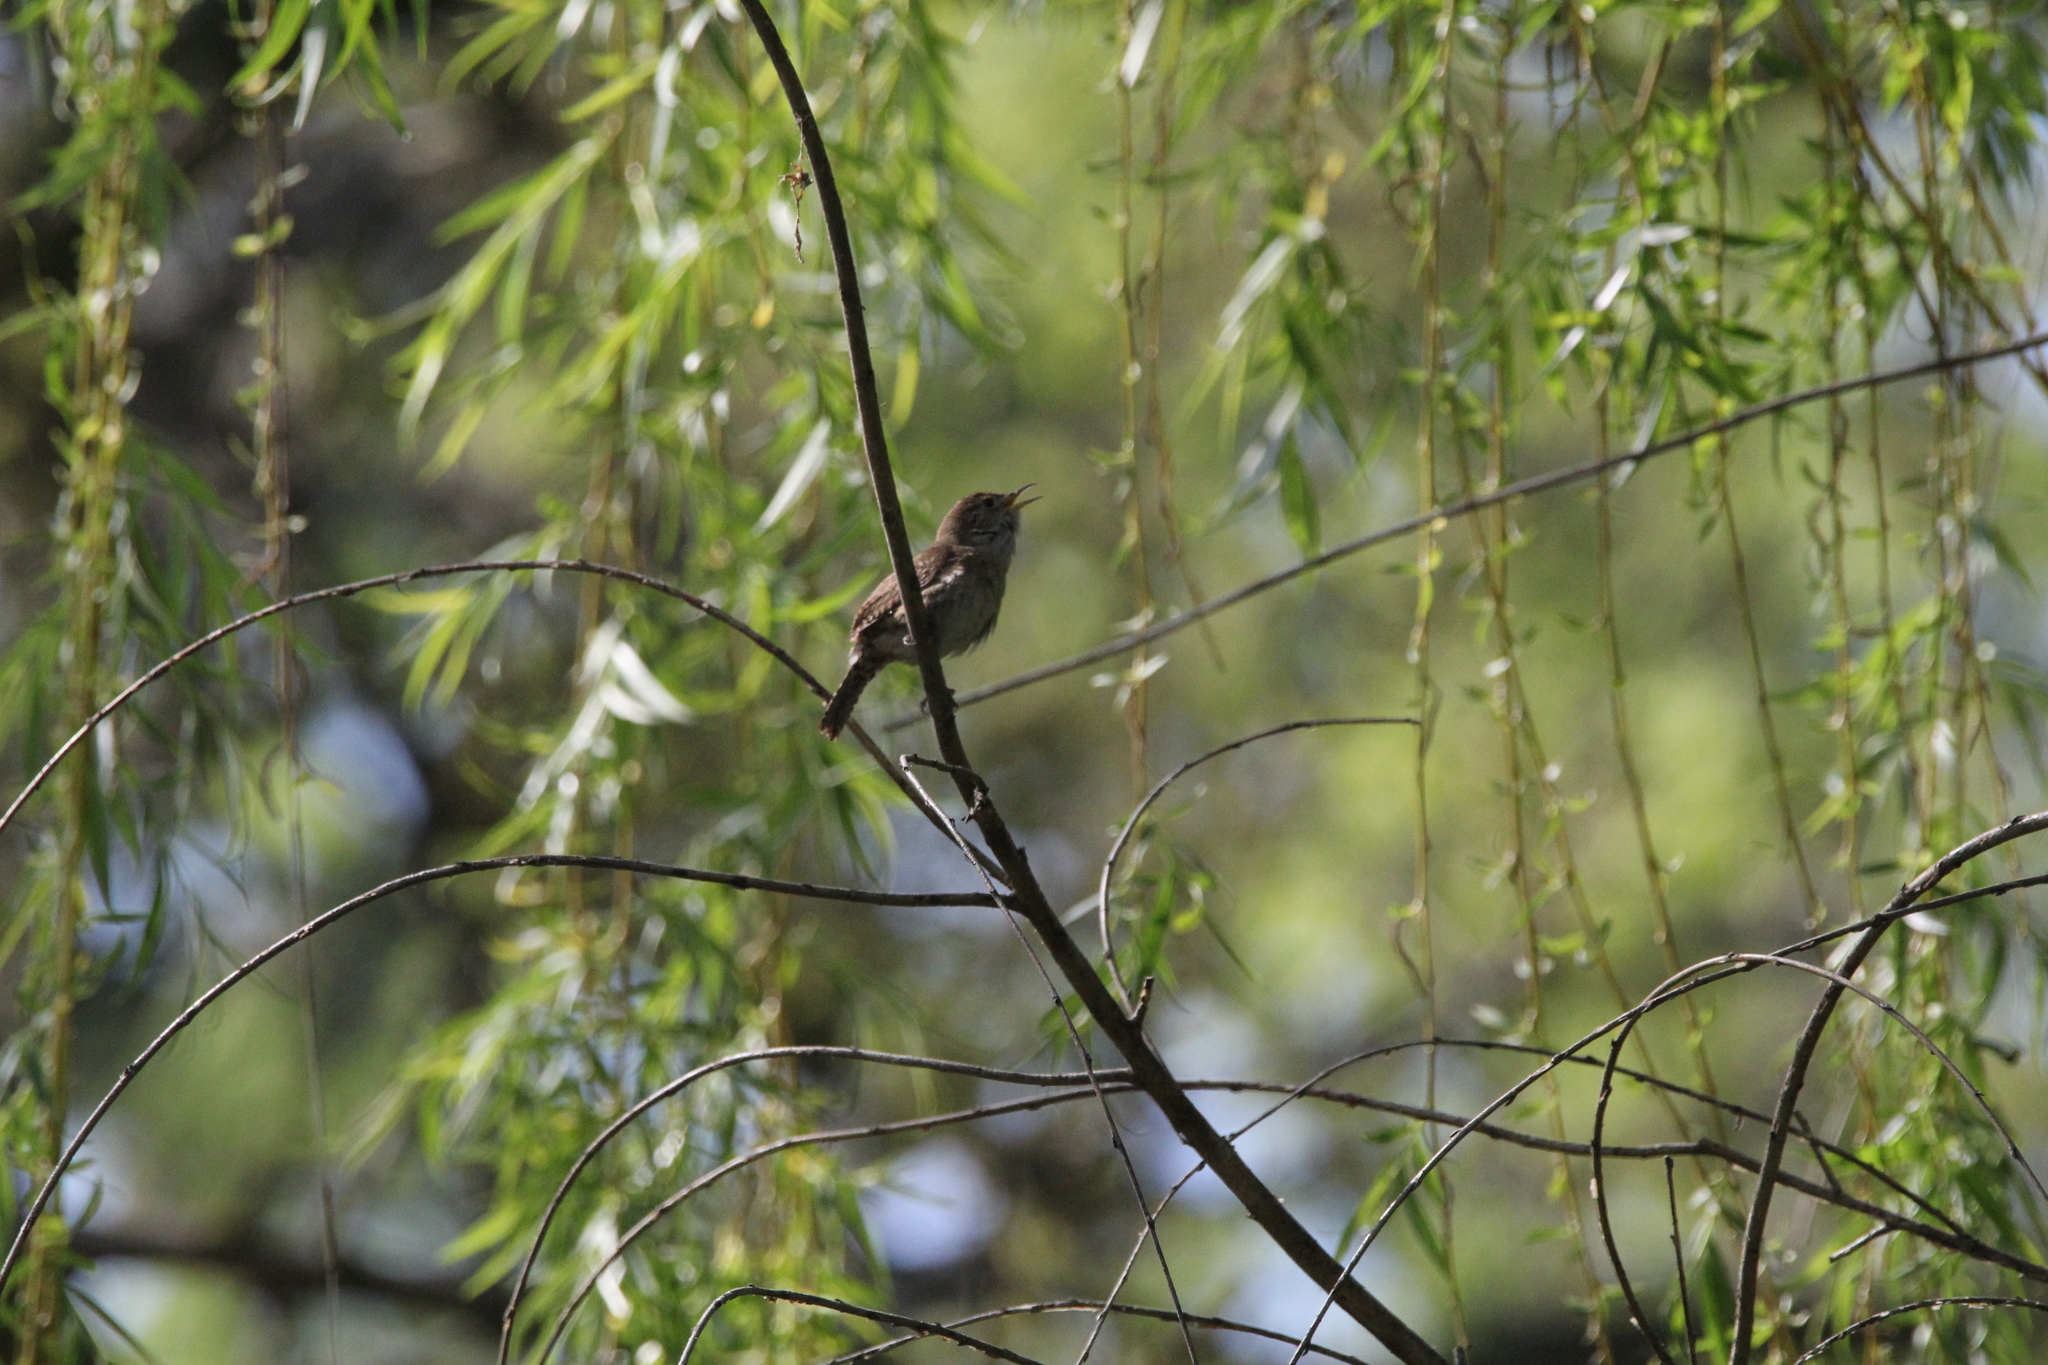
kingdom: Animalia
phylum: Chordata
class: Aves
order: Passeriformes
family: Troglodytidae
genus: Troglodytes
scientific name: Troglodytes aedon
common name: House wren
